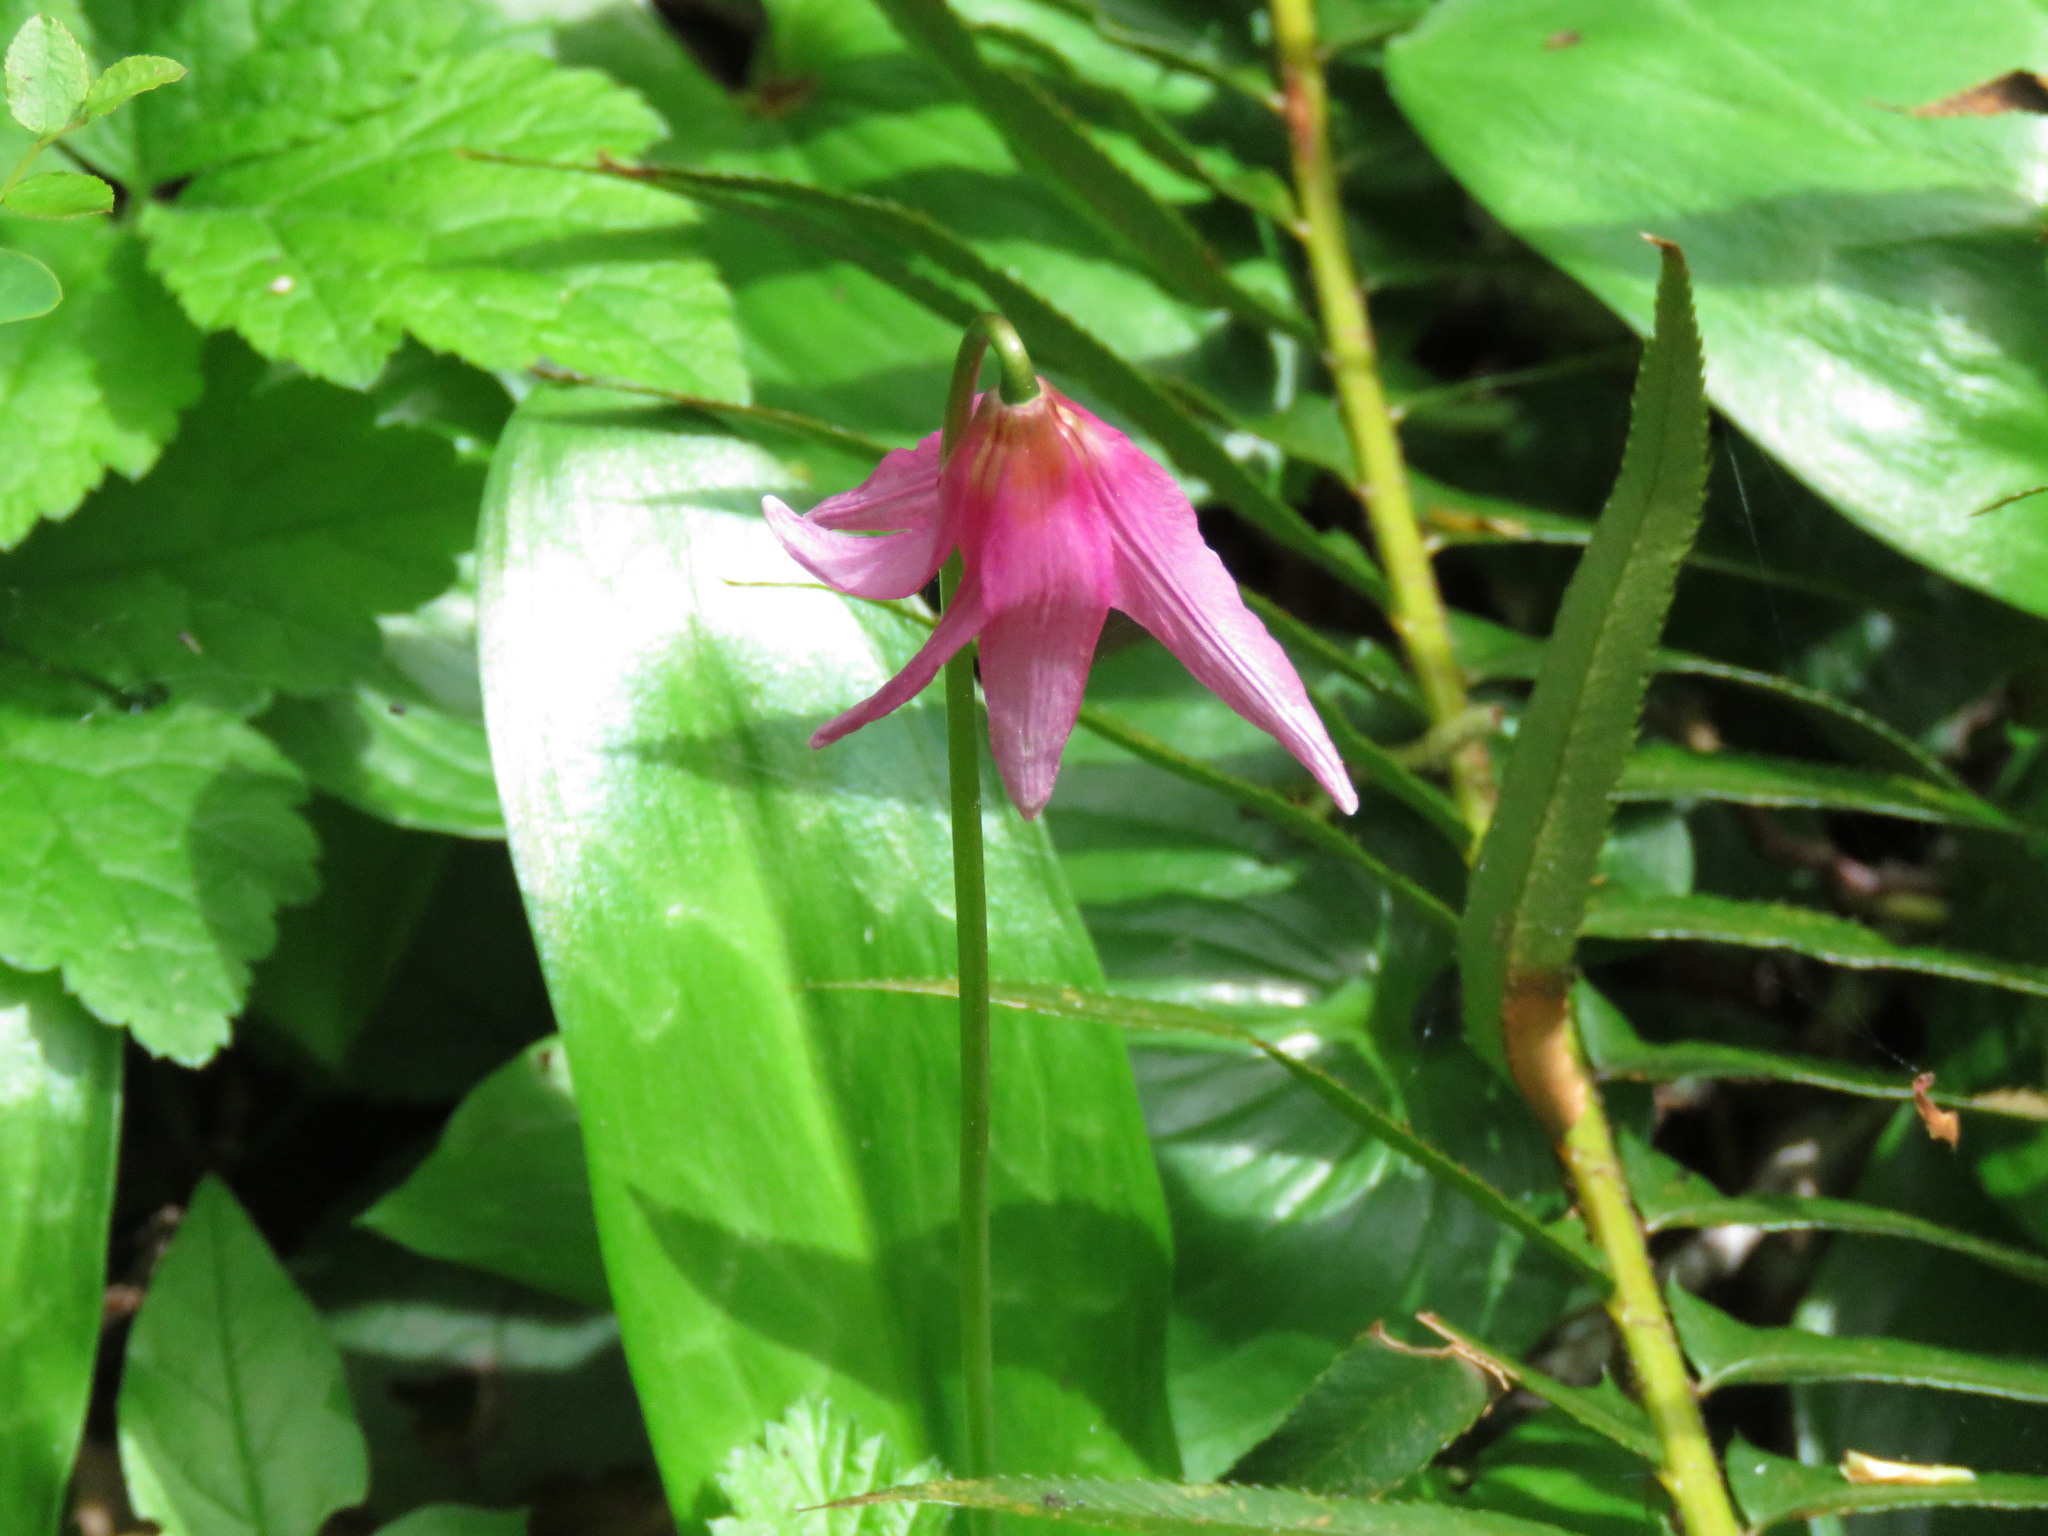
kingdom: Plantae
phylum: Tracheophyta
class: Liliopsida
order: Liliales
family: Liliaceae
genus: Erythronium
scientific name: Erythronium revolutum
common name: Pink fawn-lily
